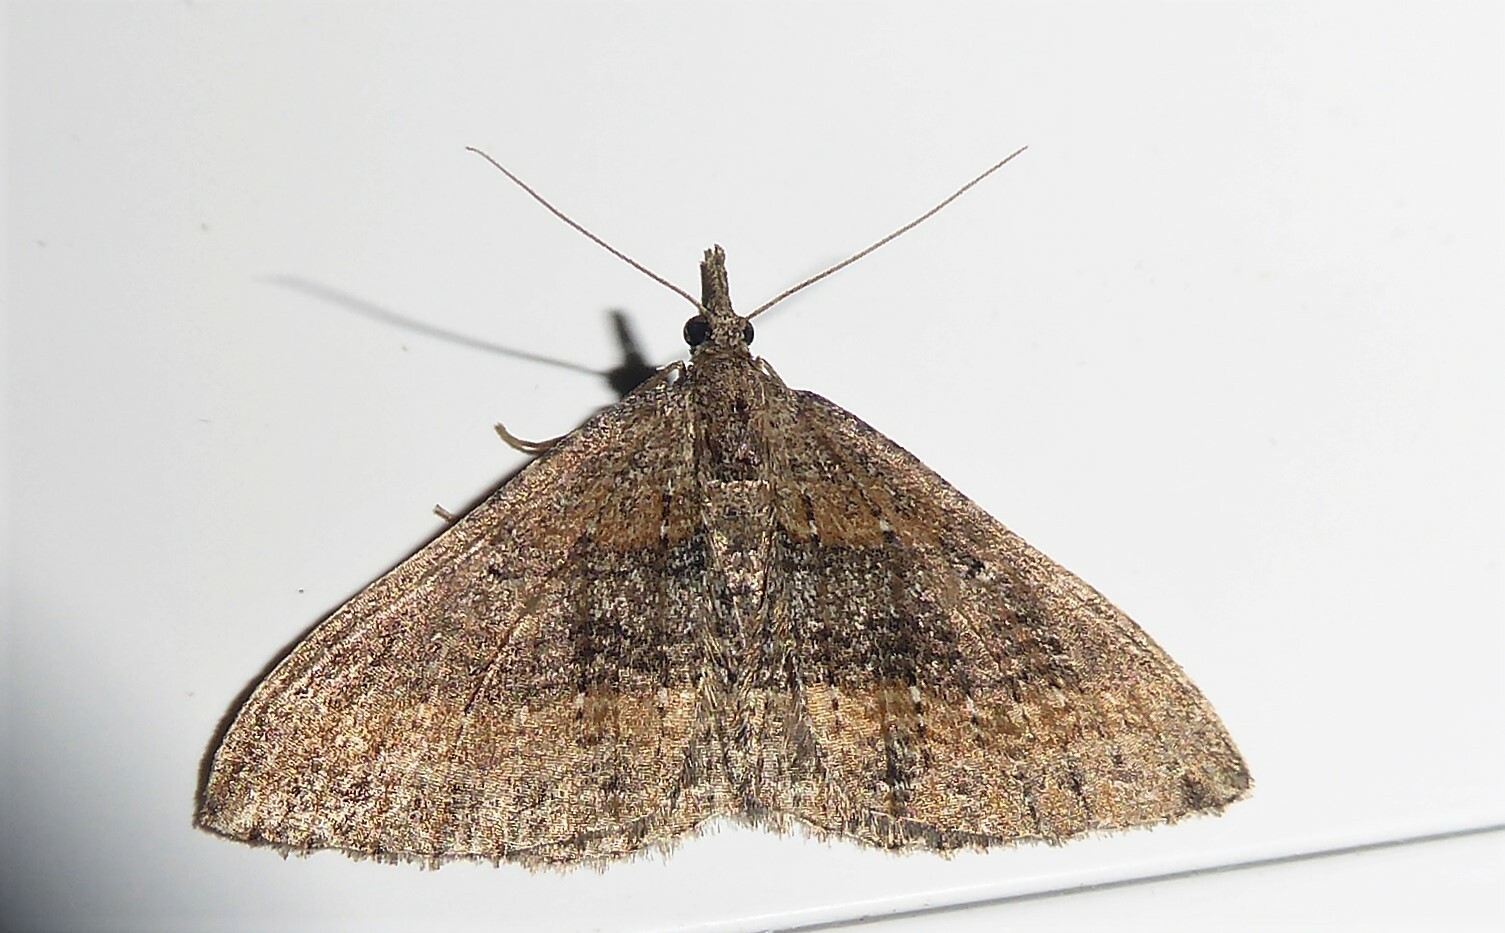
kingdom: Animalia
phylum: Arthropoda
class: Insecta
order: Lepidoptera
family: Geometridae
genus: Epyaxa
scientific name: Epyaxa venipunctata
